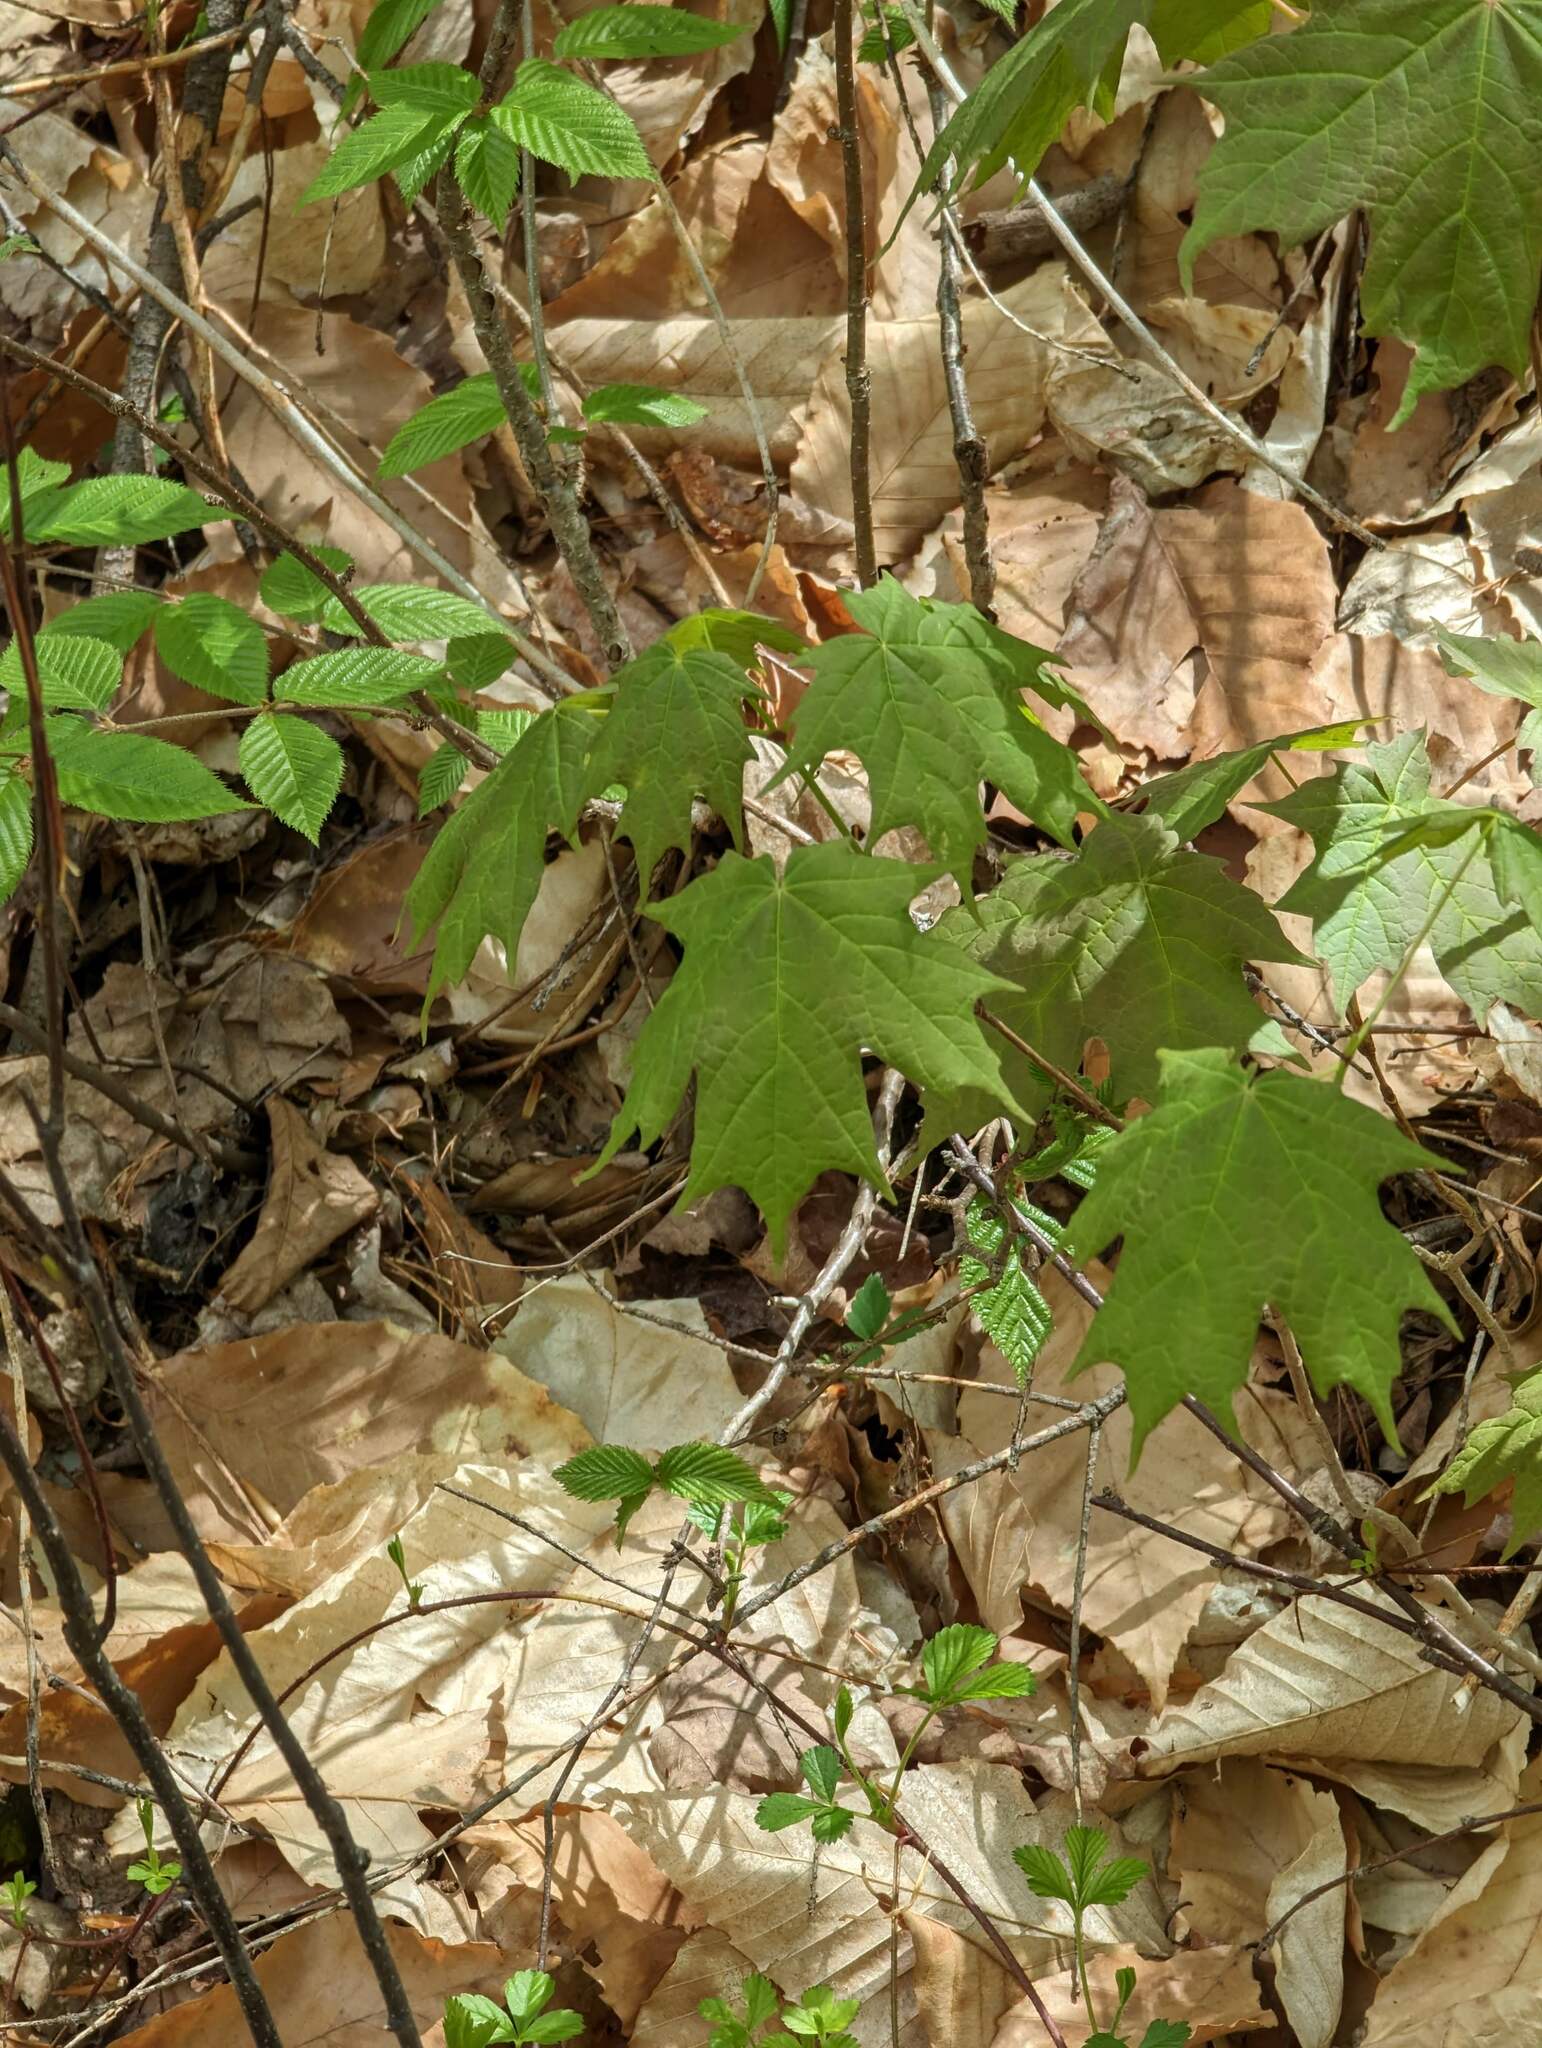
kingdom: Plantae
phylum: Tracheophyta
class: Magnoliopsida
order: Sapindales
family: Sapindaceae
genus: Acer
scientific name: Acer saccharum
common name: Sugar maple
